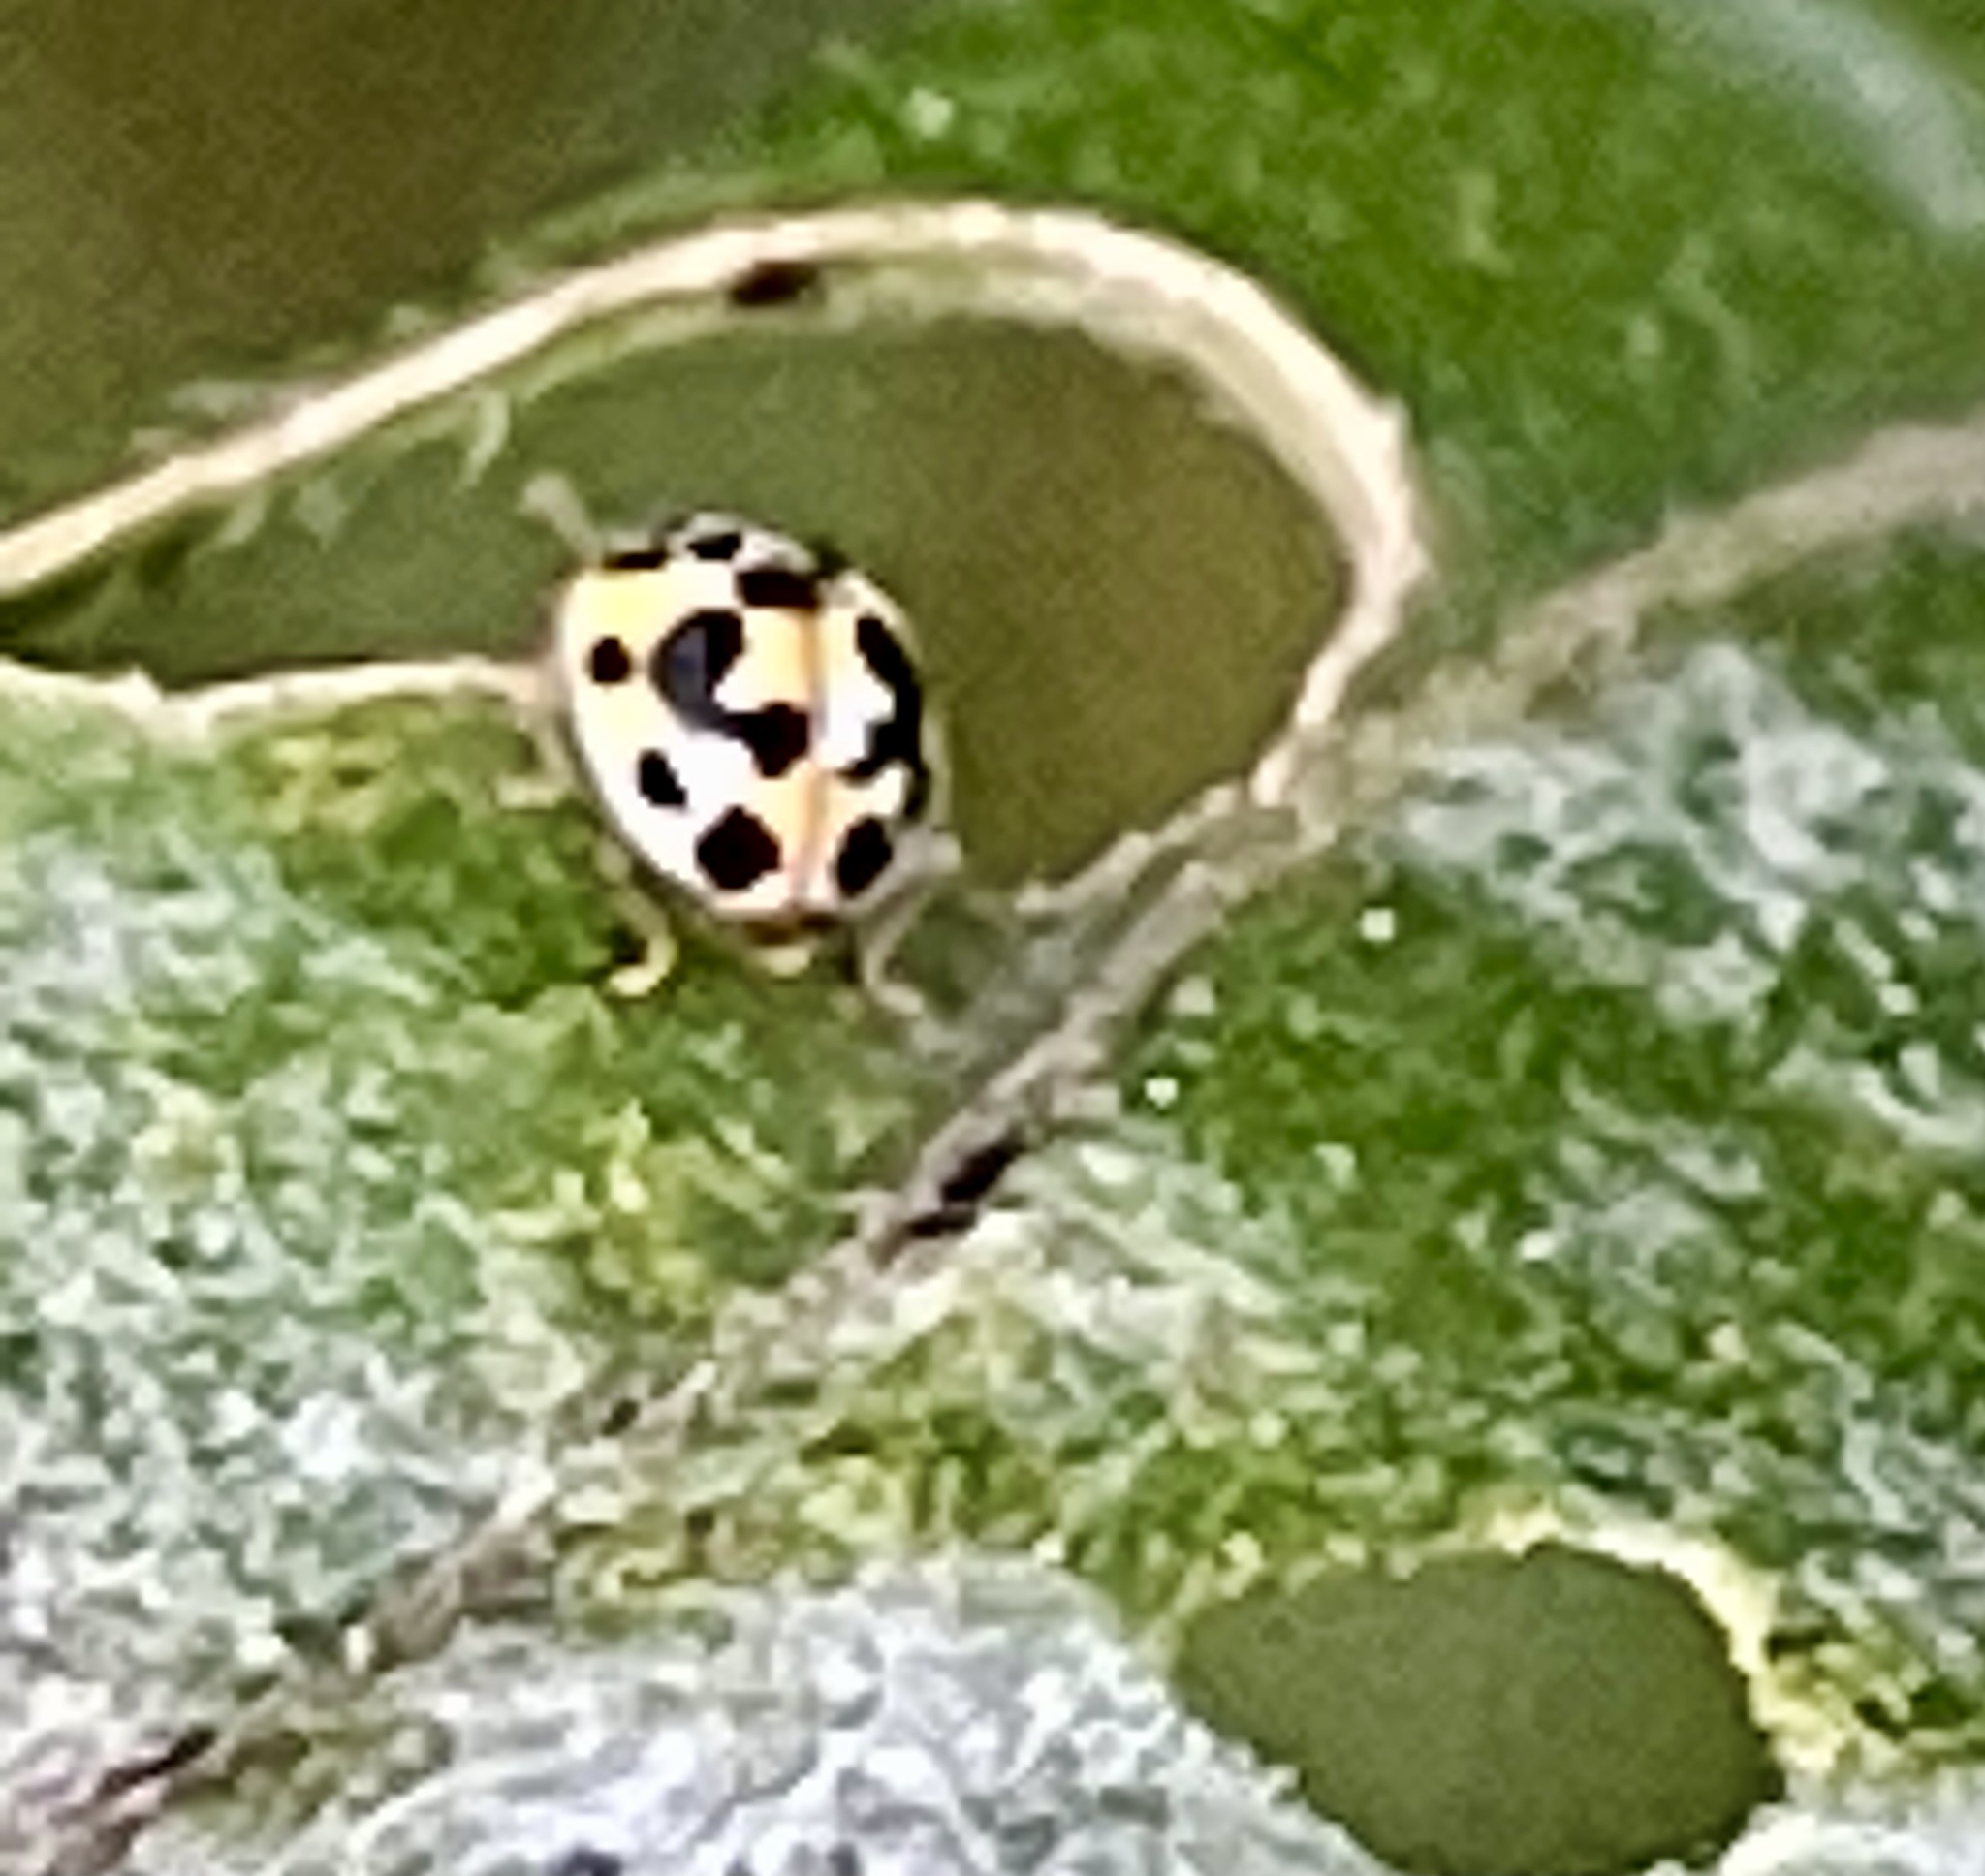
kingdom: Animalia
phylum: Arthropoda
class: Insecta
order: Coleoptera
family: Coccinellidae
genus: Psyllobora
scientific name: Psyllobora vigintimaculata
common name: Ladybird beetle
